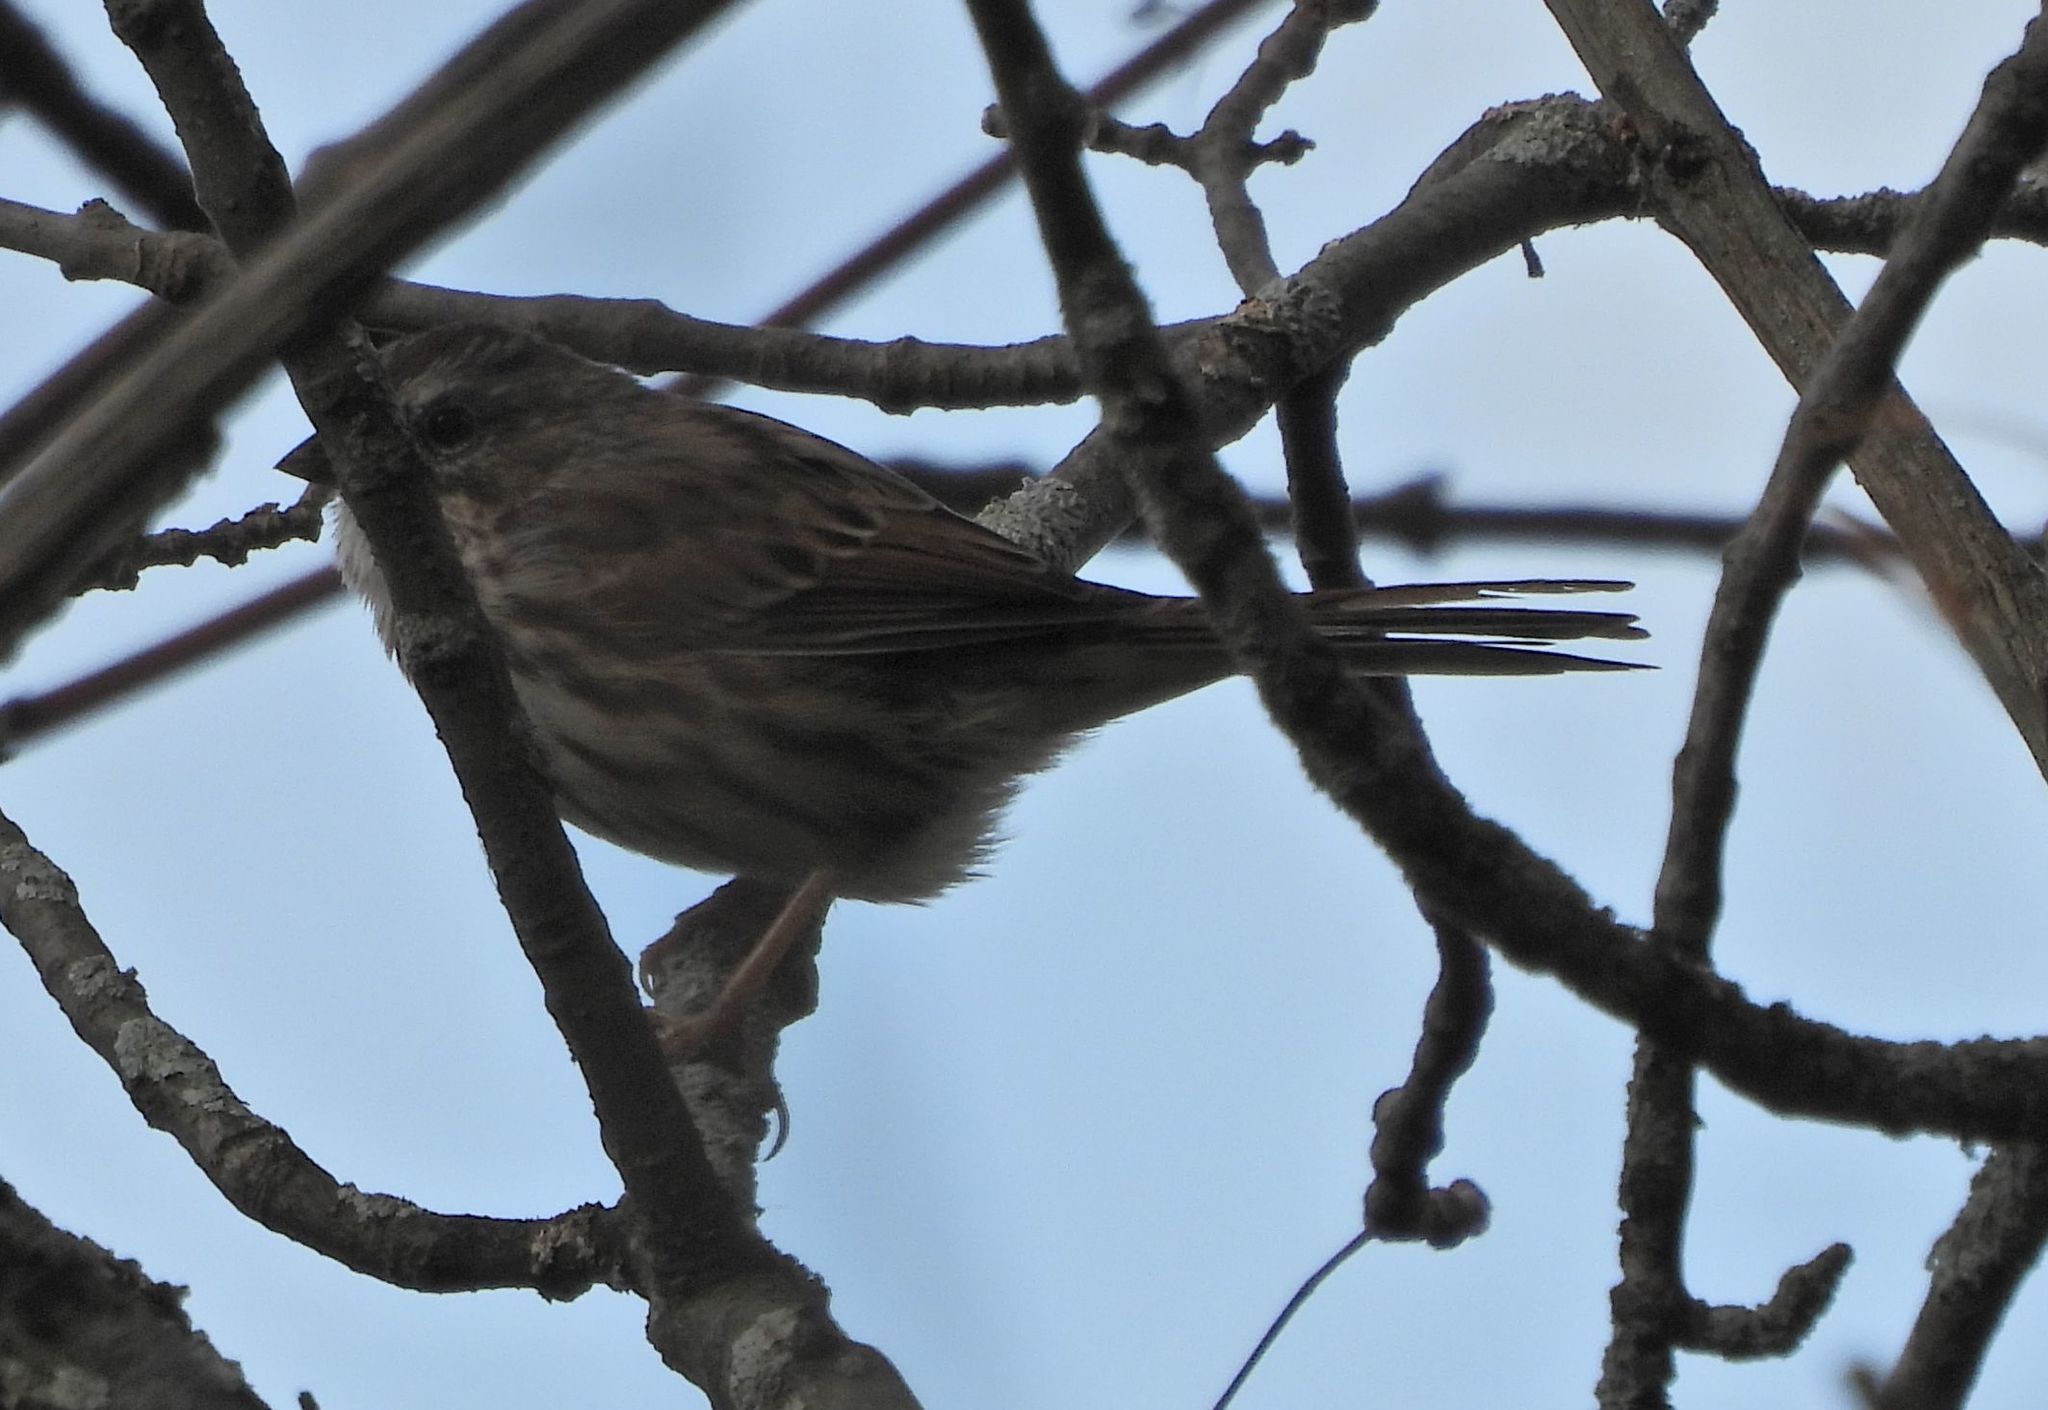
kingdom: Animalia
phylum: Chordata
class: Aves
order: Passeriformes
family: Passerellidae
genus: Melospiza
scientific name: Melospiza melodia
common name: Song sparrow
